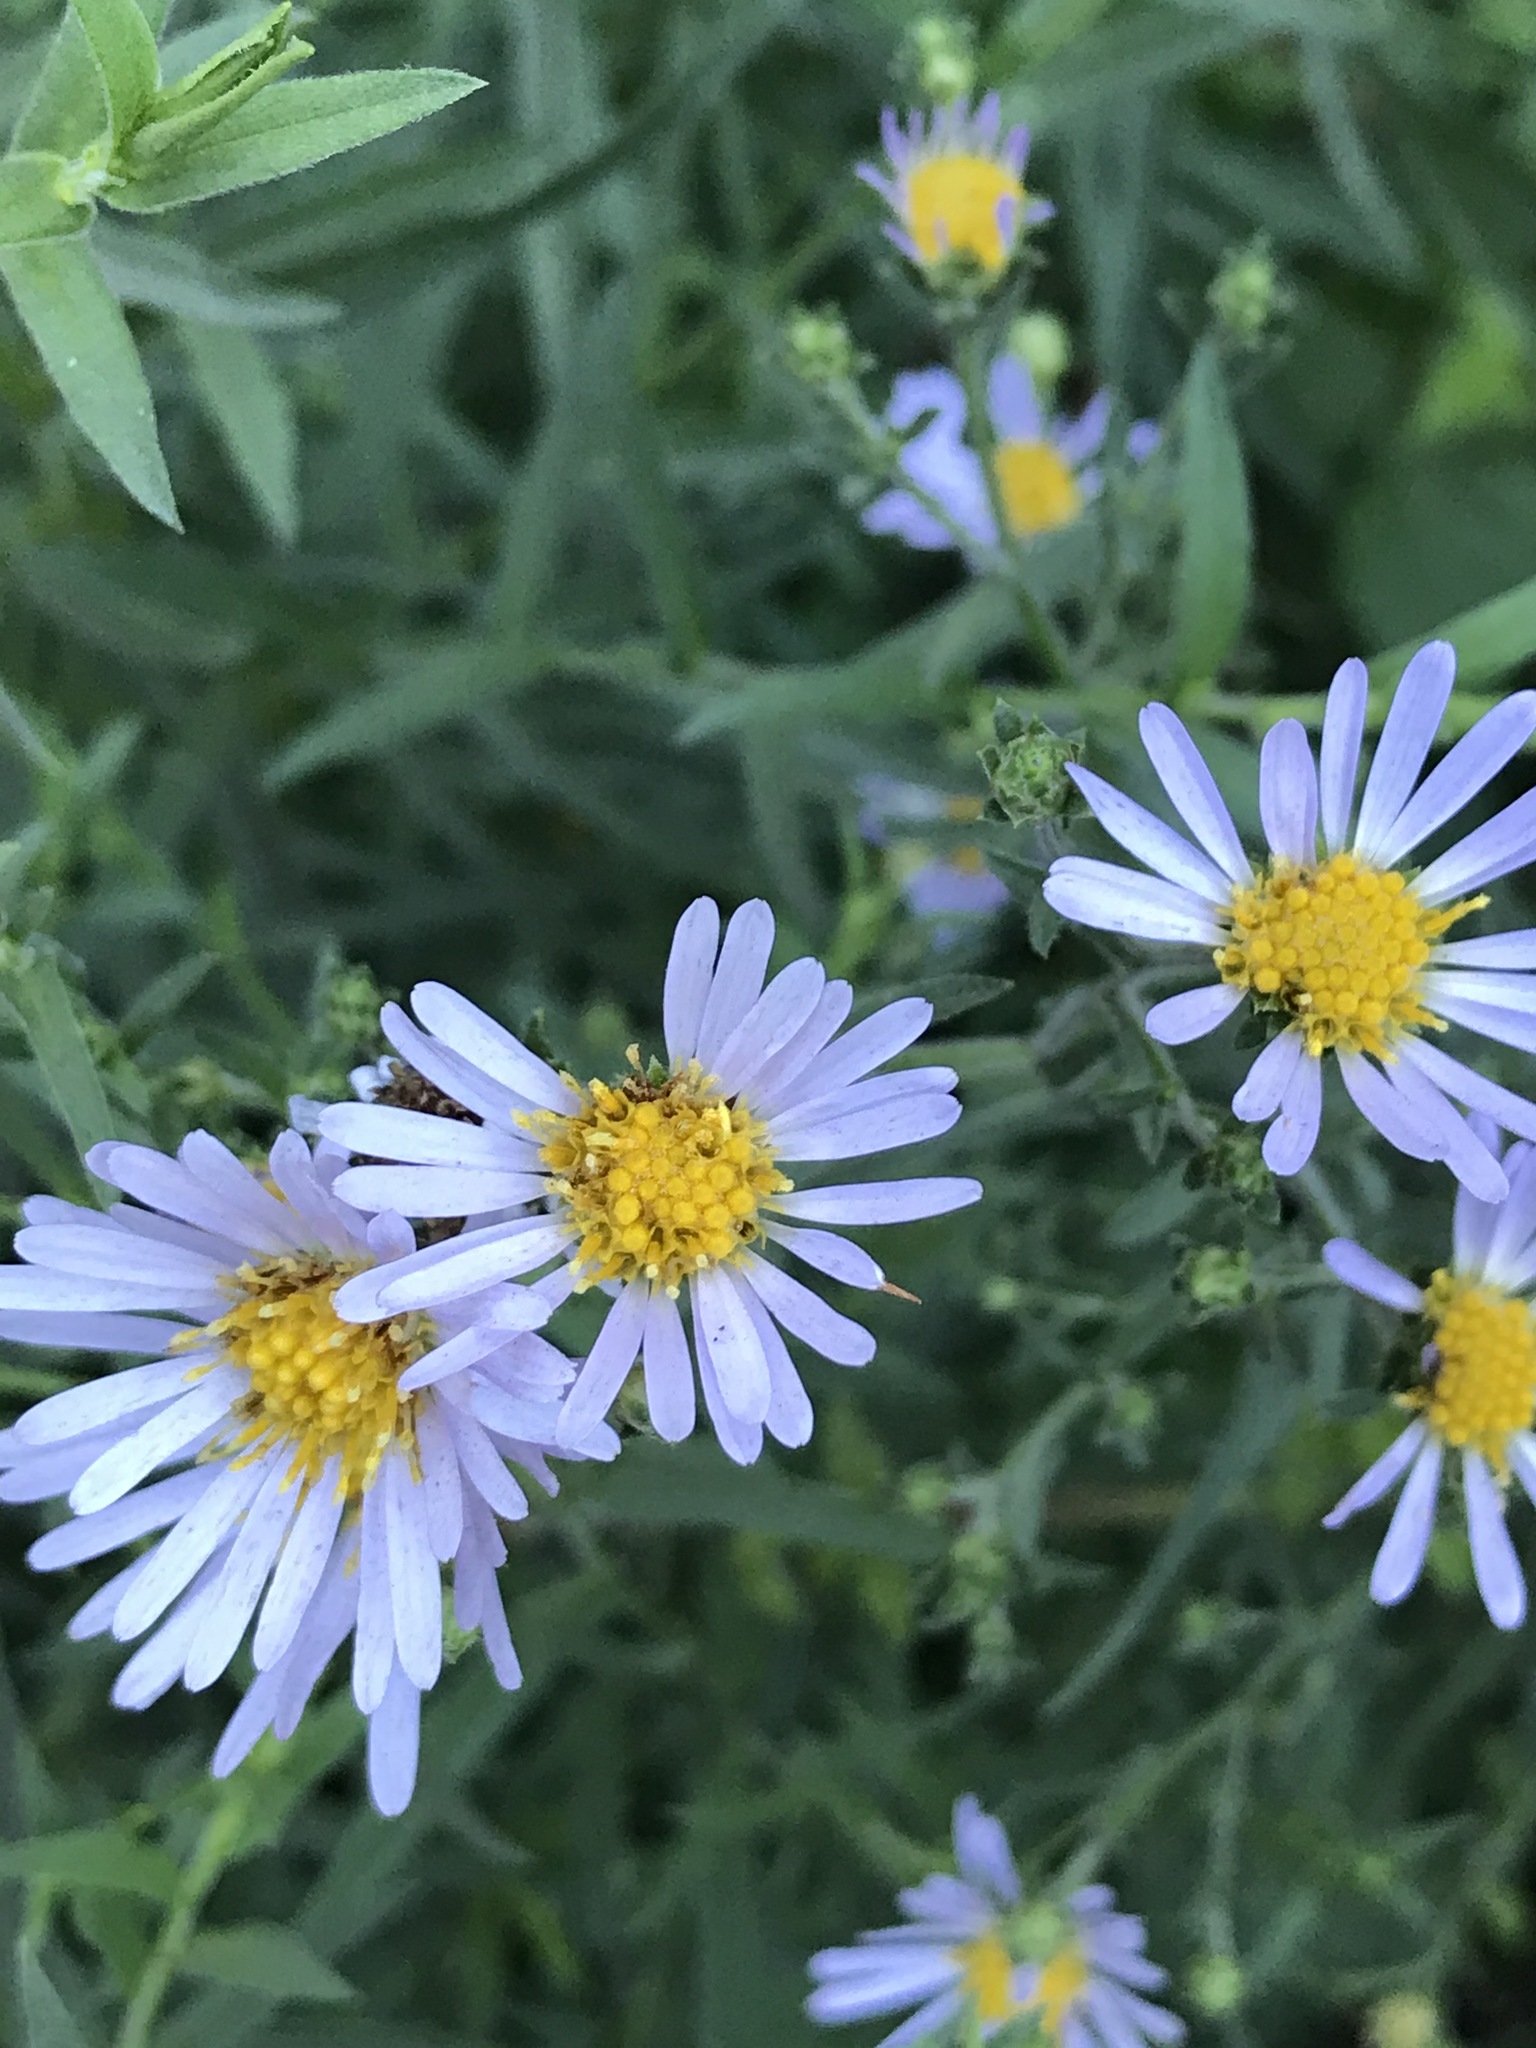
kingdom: Plantae
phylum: Tracheophyta
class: Magnoliopsida
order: Asterales
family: Asteraceae
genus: Symphyotrichum
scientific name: Symphyotrichum chilense
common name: Pacific aster
